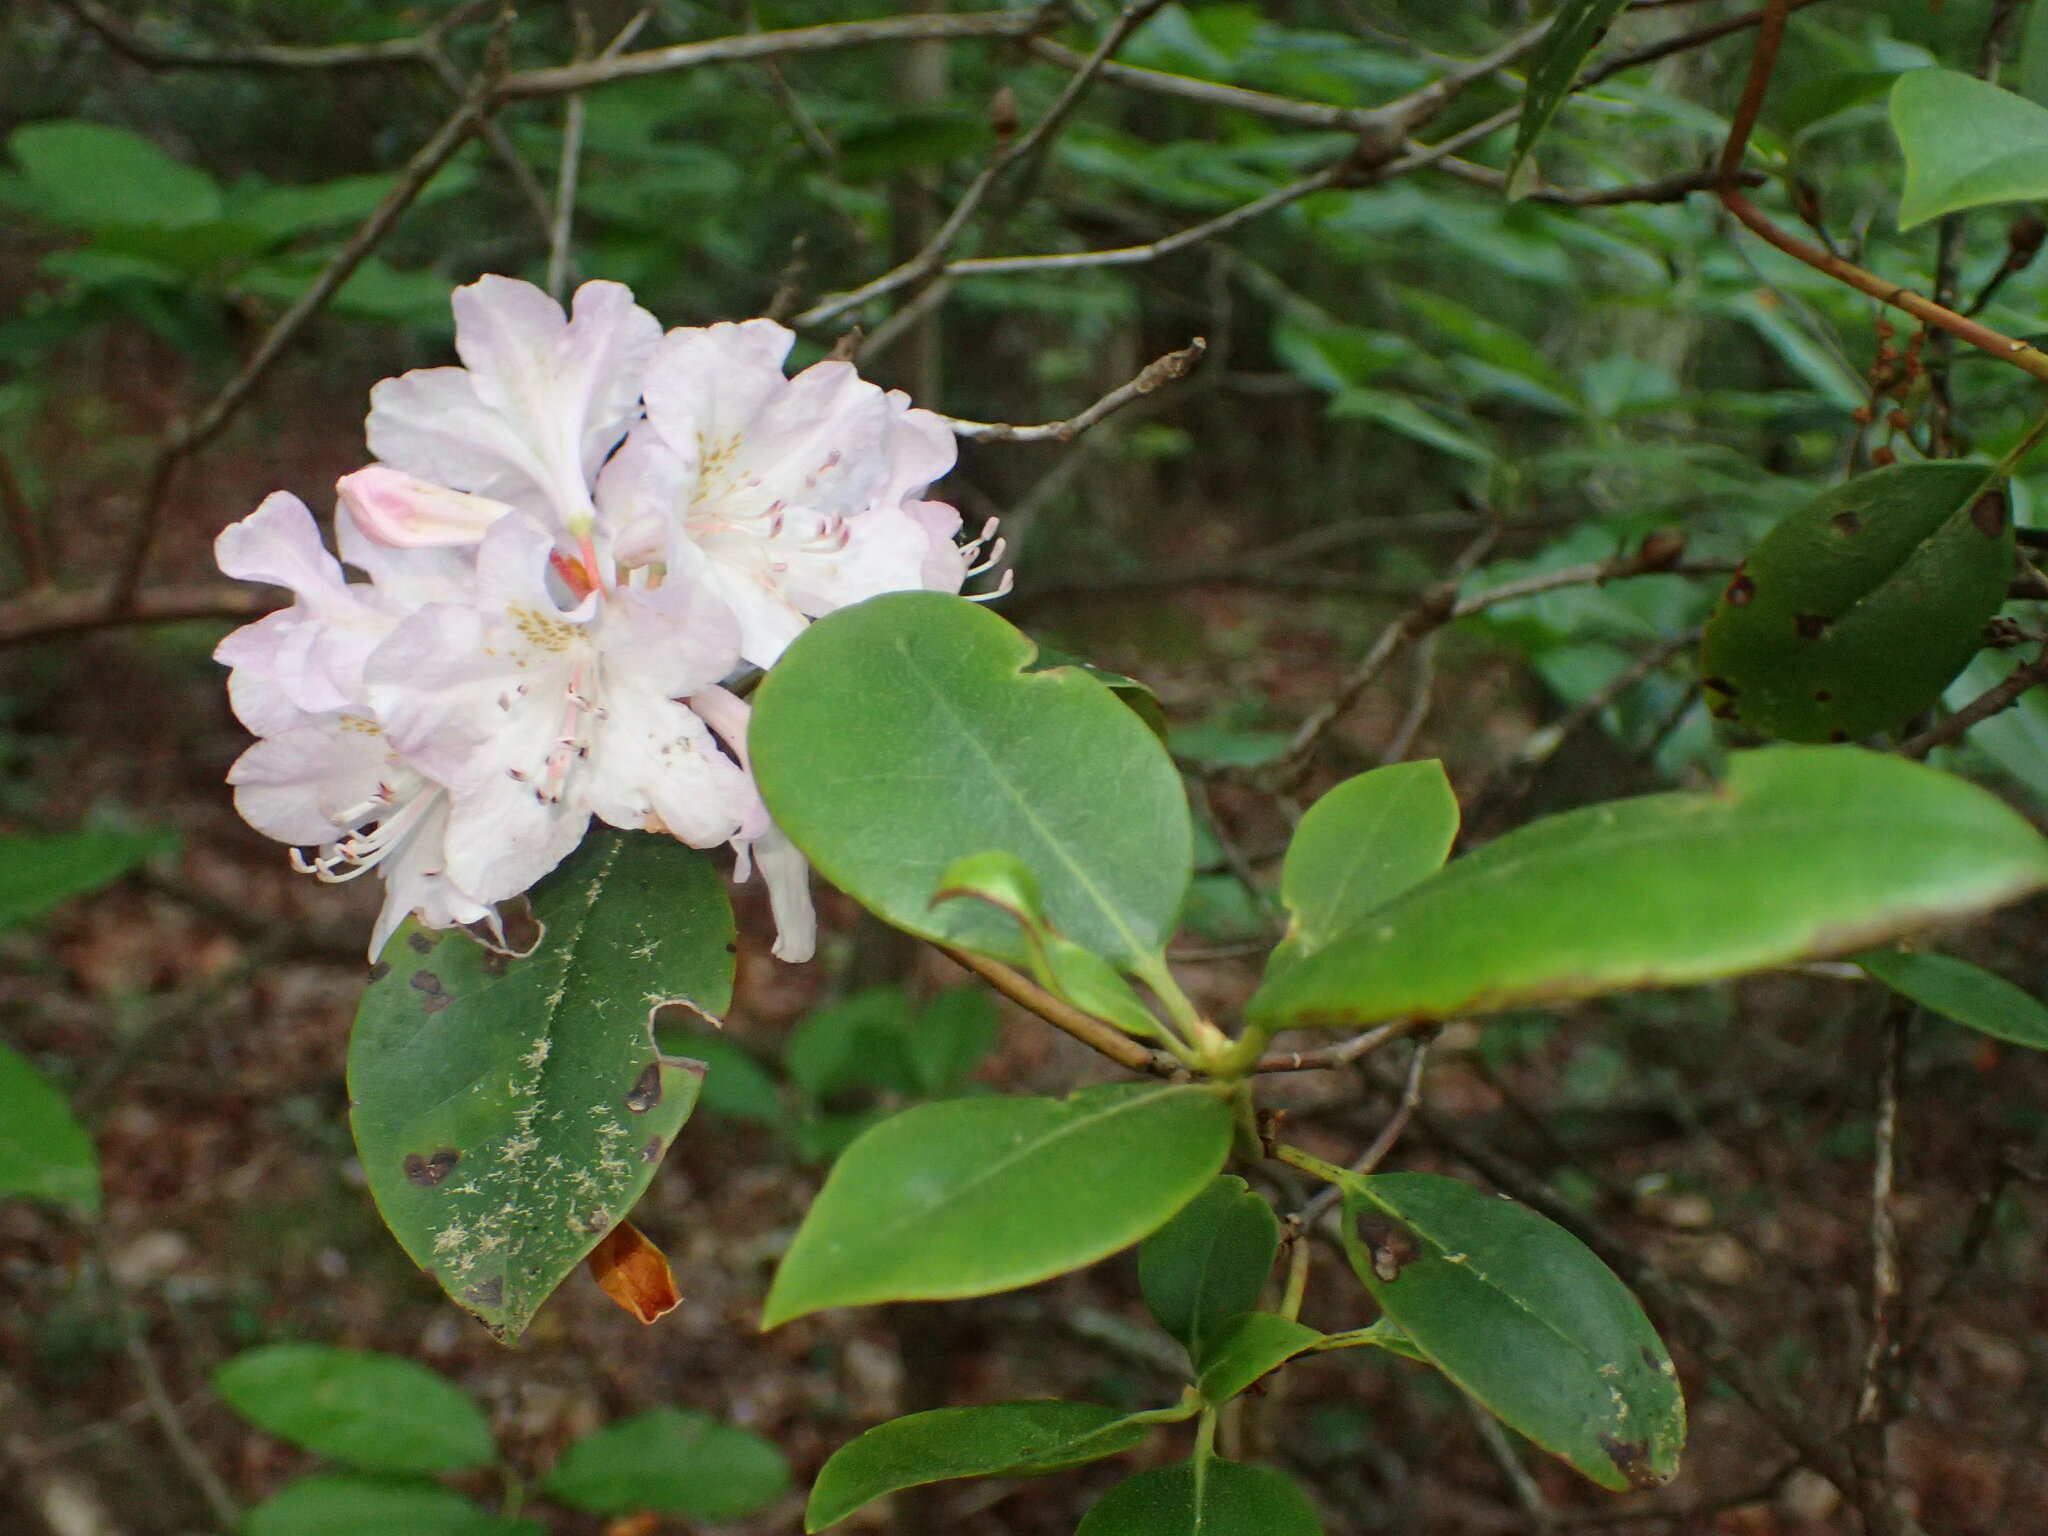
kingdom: Plantae
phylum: Tracheophyta
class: Magnoliopsida
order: Ericales
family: Ericaceae
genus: Rhododendron
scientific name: Rhododendron minus
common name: Piedmont rhododendron
